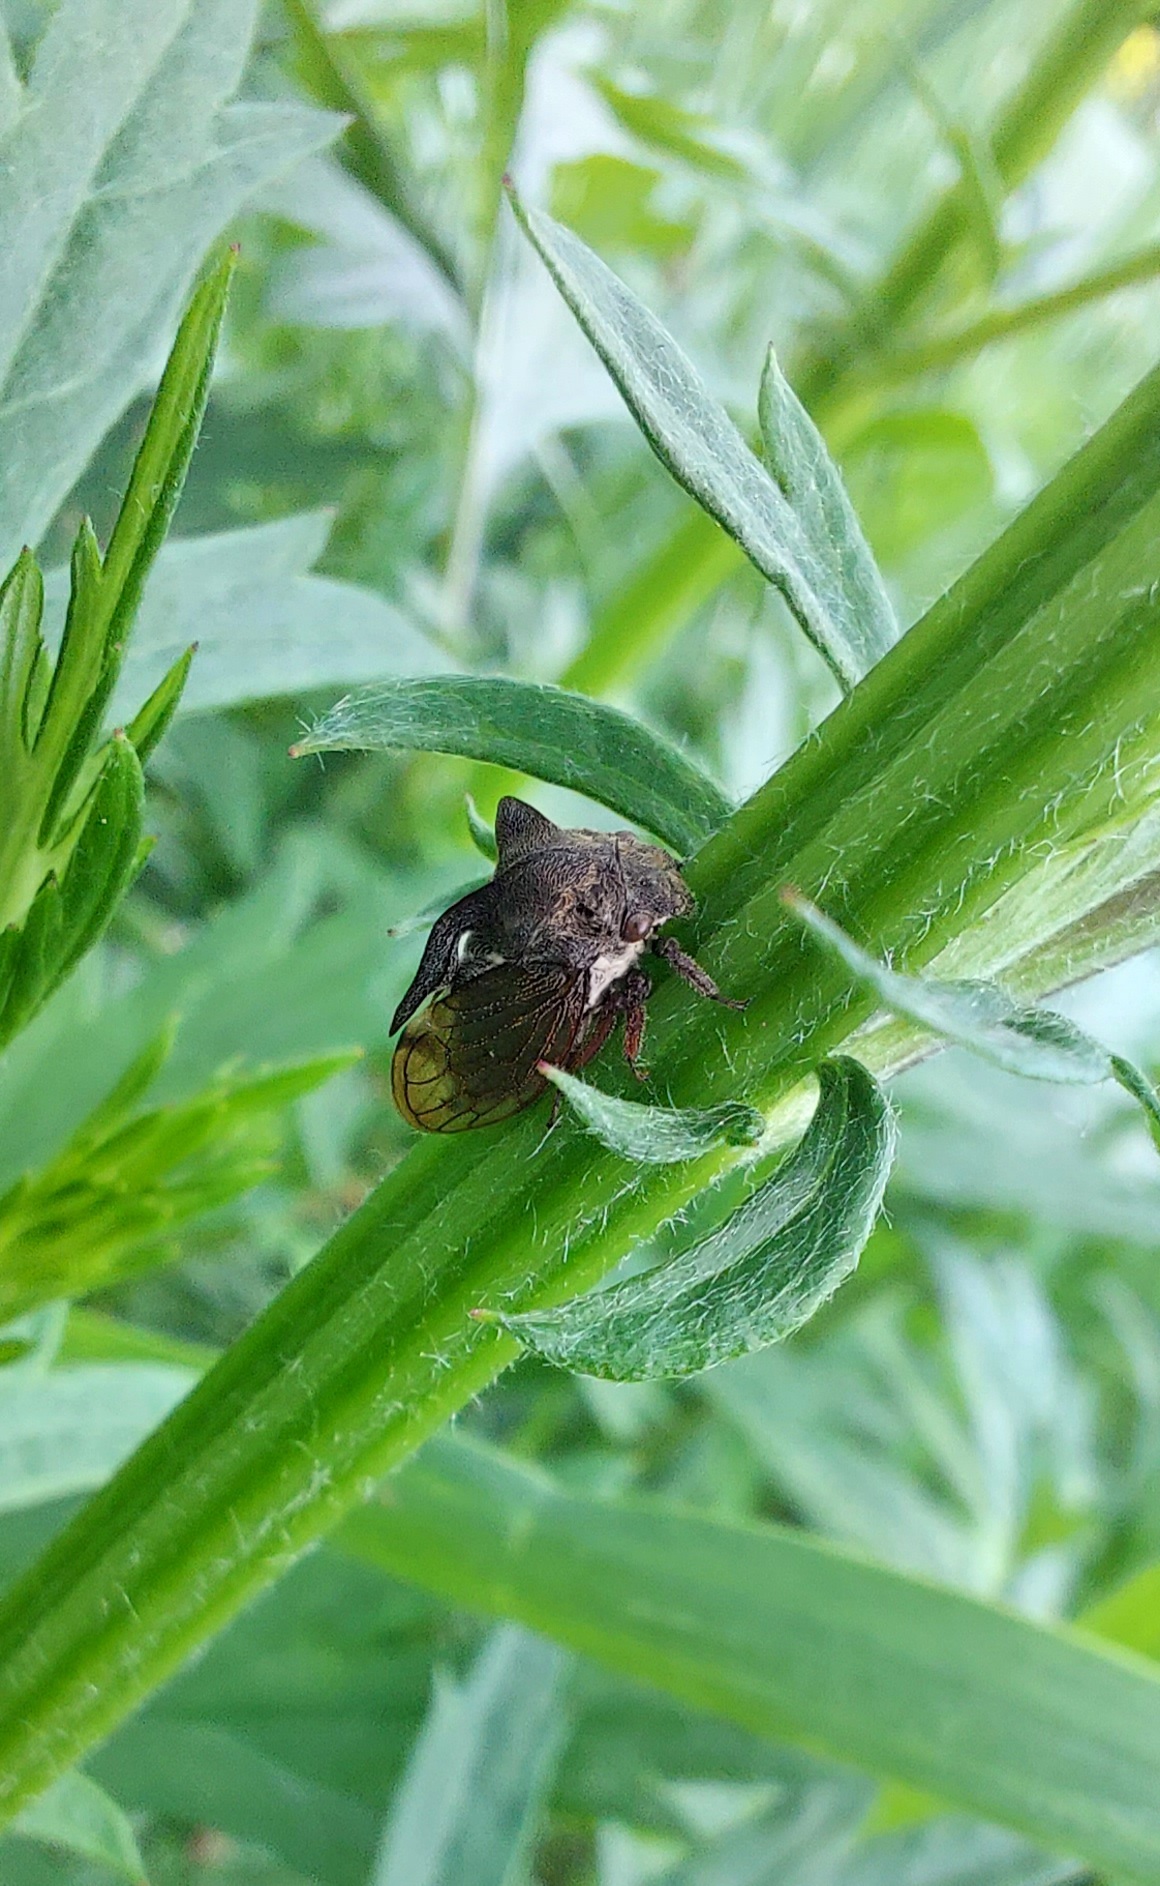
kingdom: Animalia
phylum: Arthropoda
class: Insecta
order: Hemiptera
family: Membracidae
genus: Centrotus
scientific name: Centrotus cornuta
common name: Treehopper
